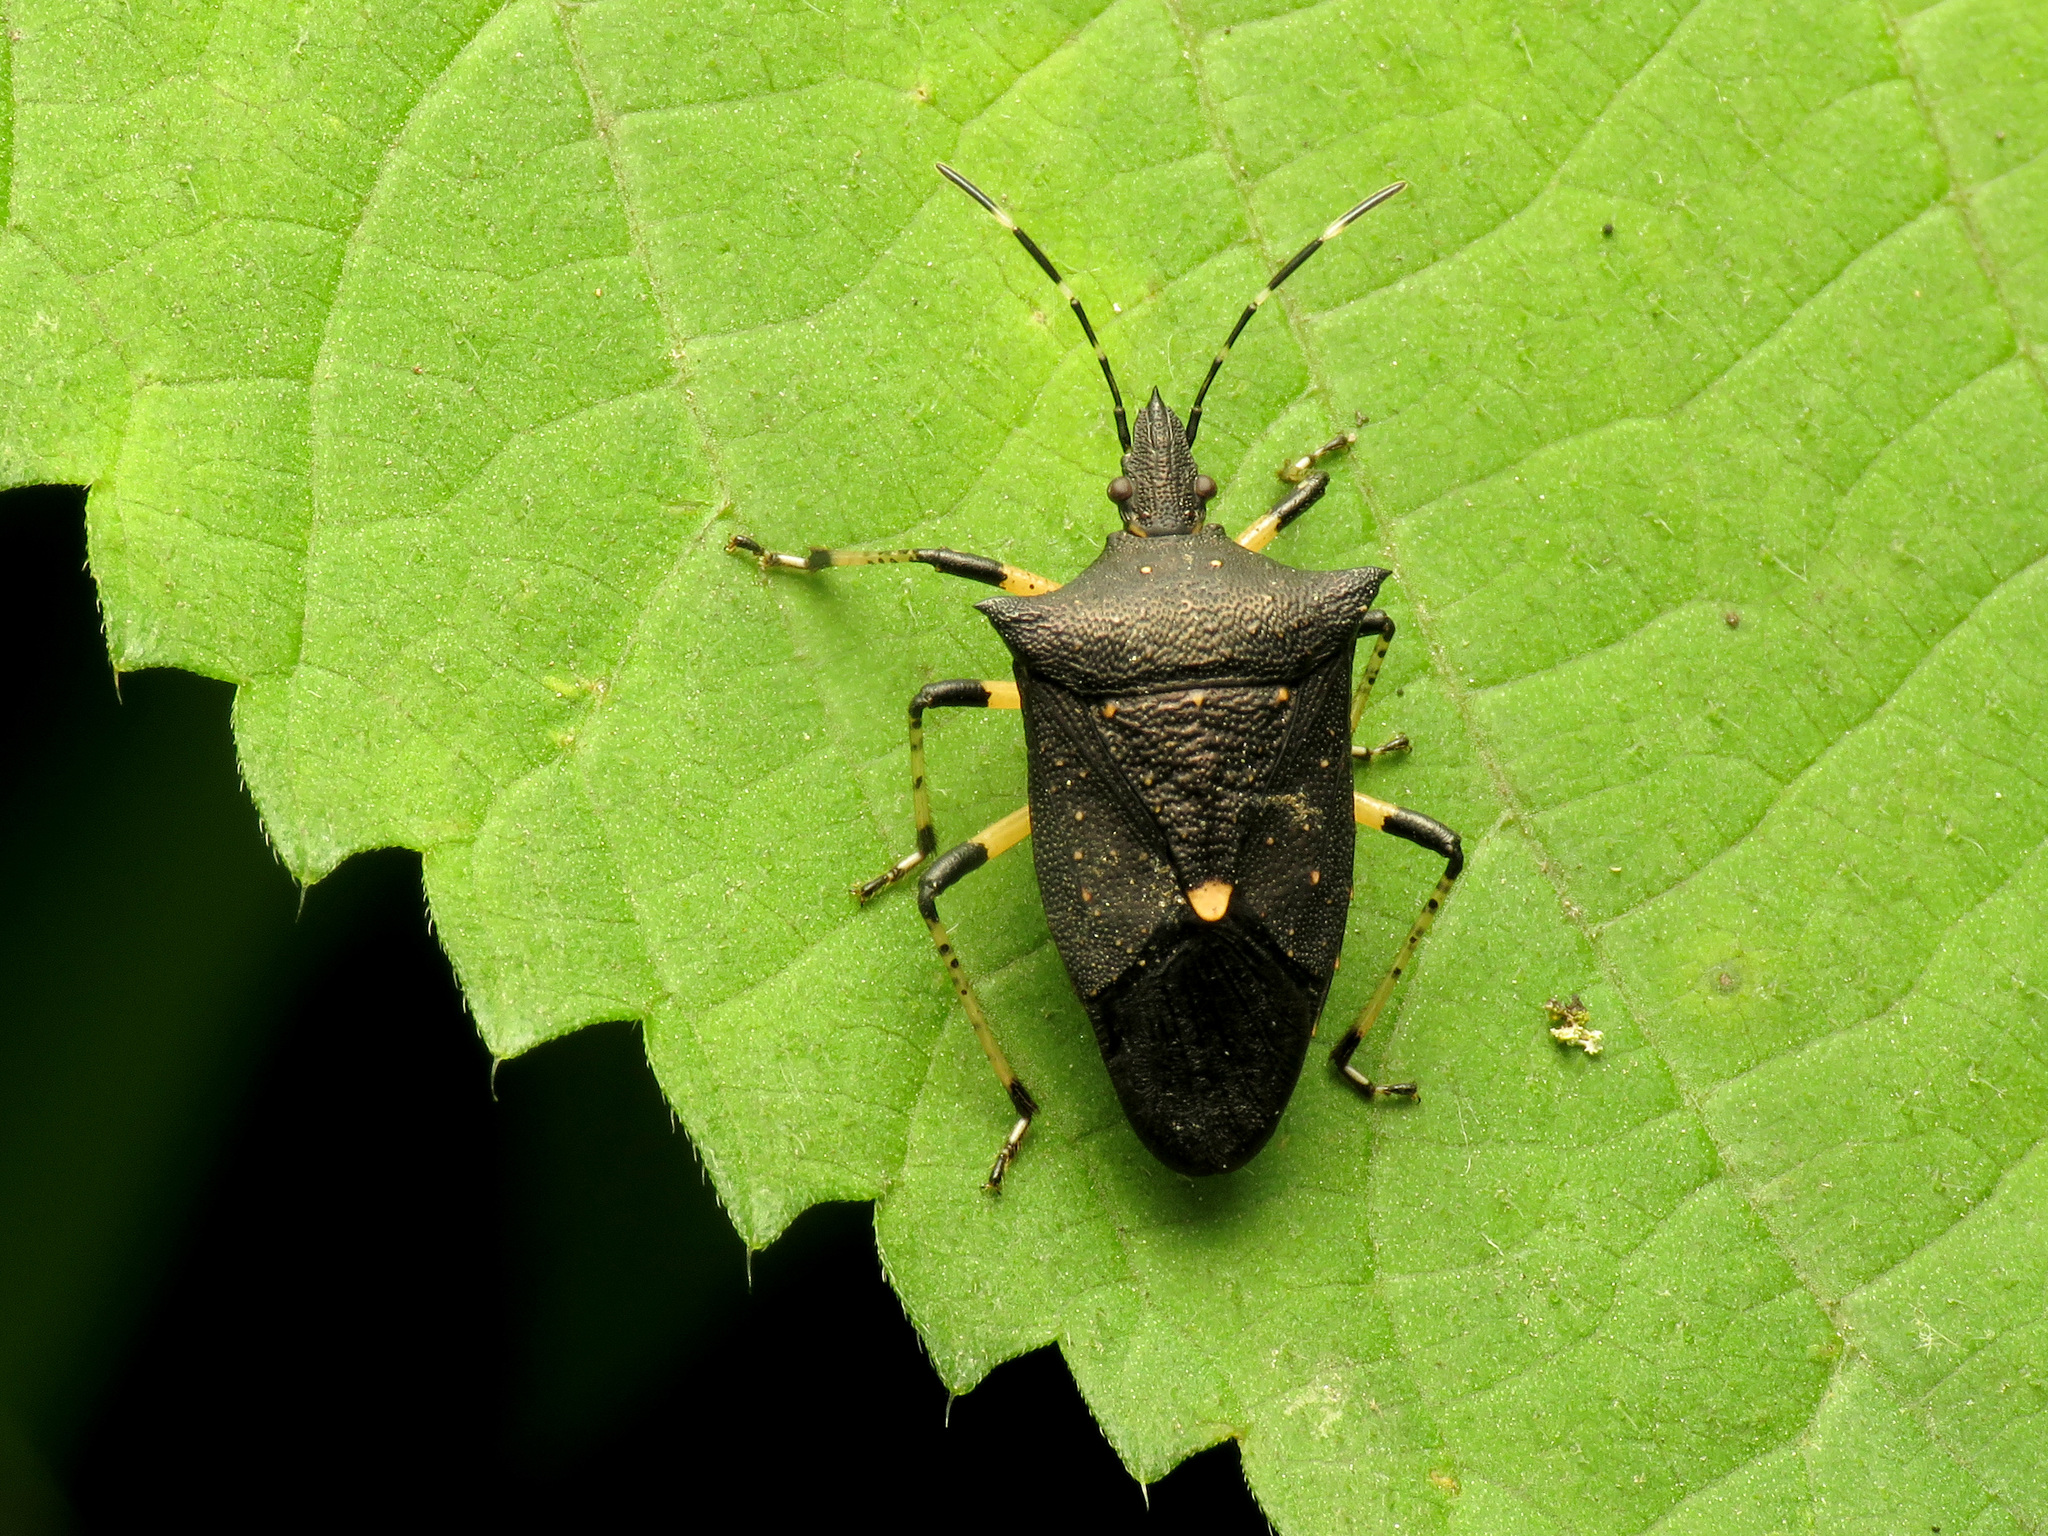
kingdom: Animalia
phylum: Arthropoda
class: Insecta
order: Hemiptera
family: Pentatomidae
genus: Proxys
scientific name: Proxys punctulatus
